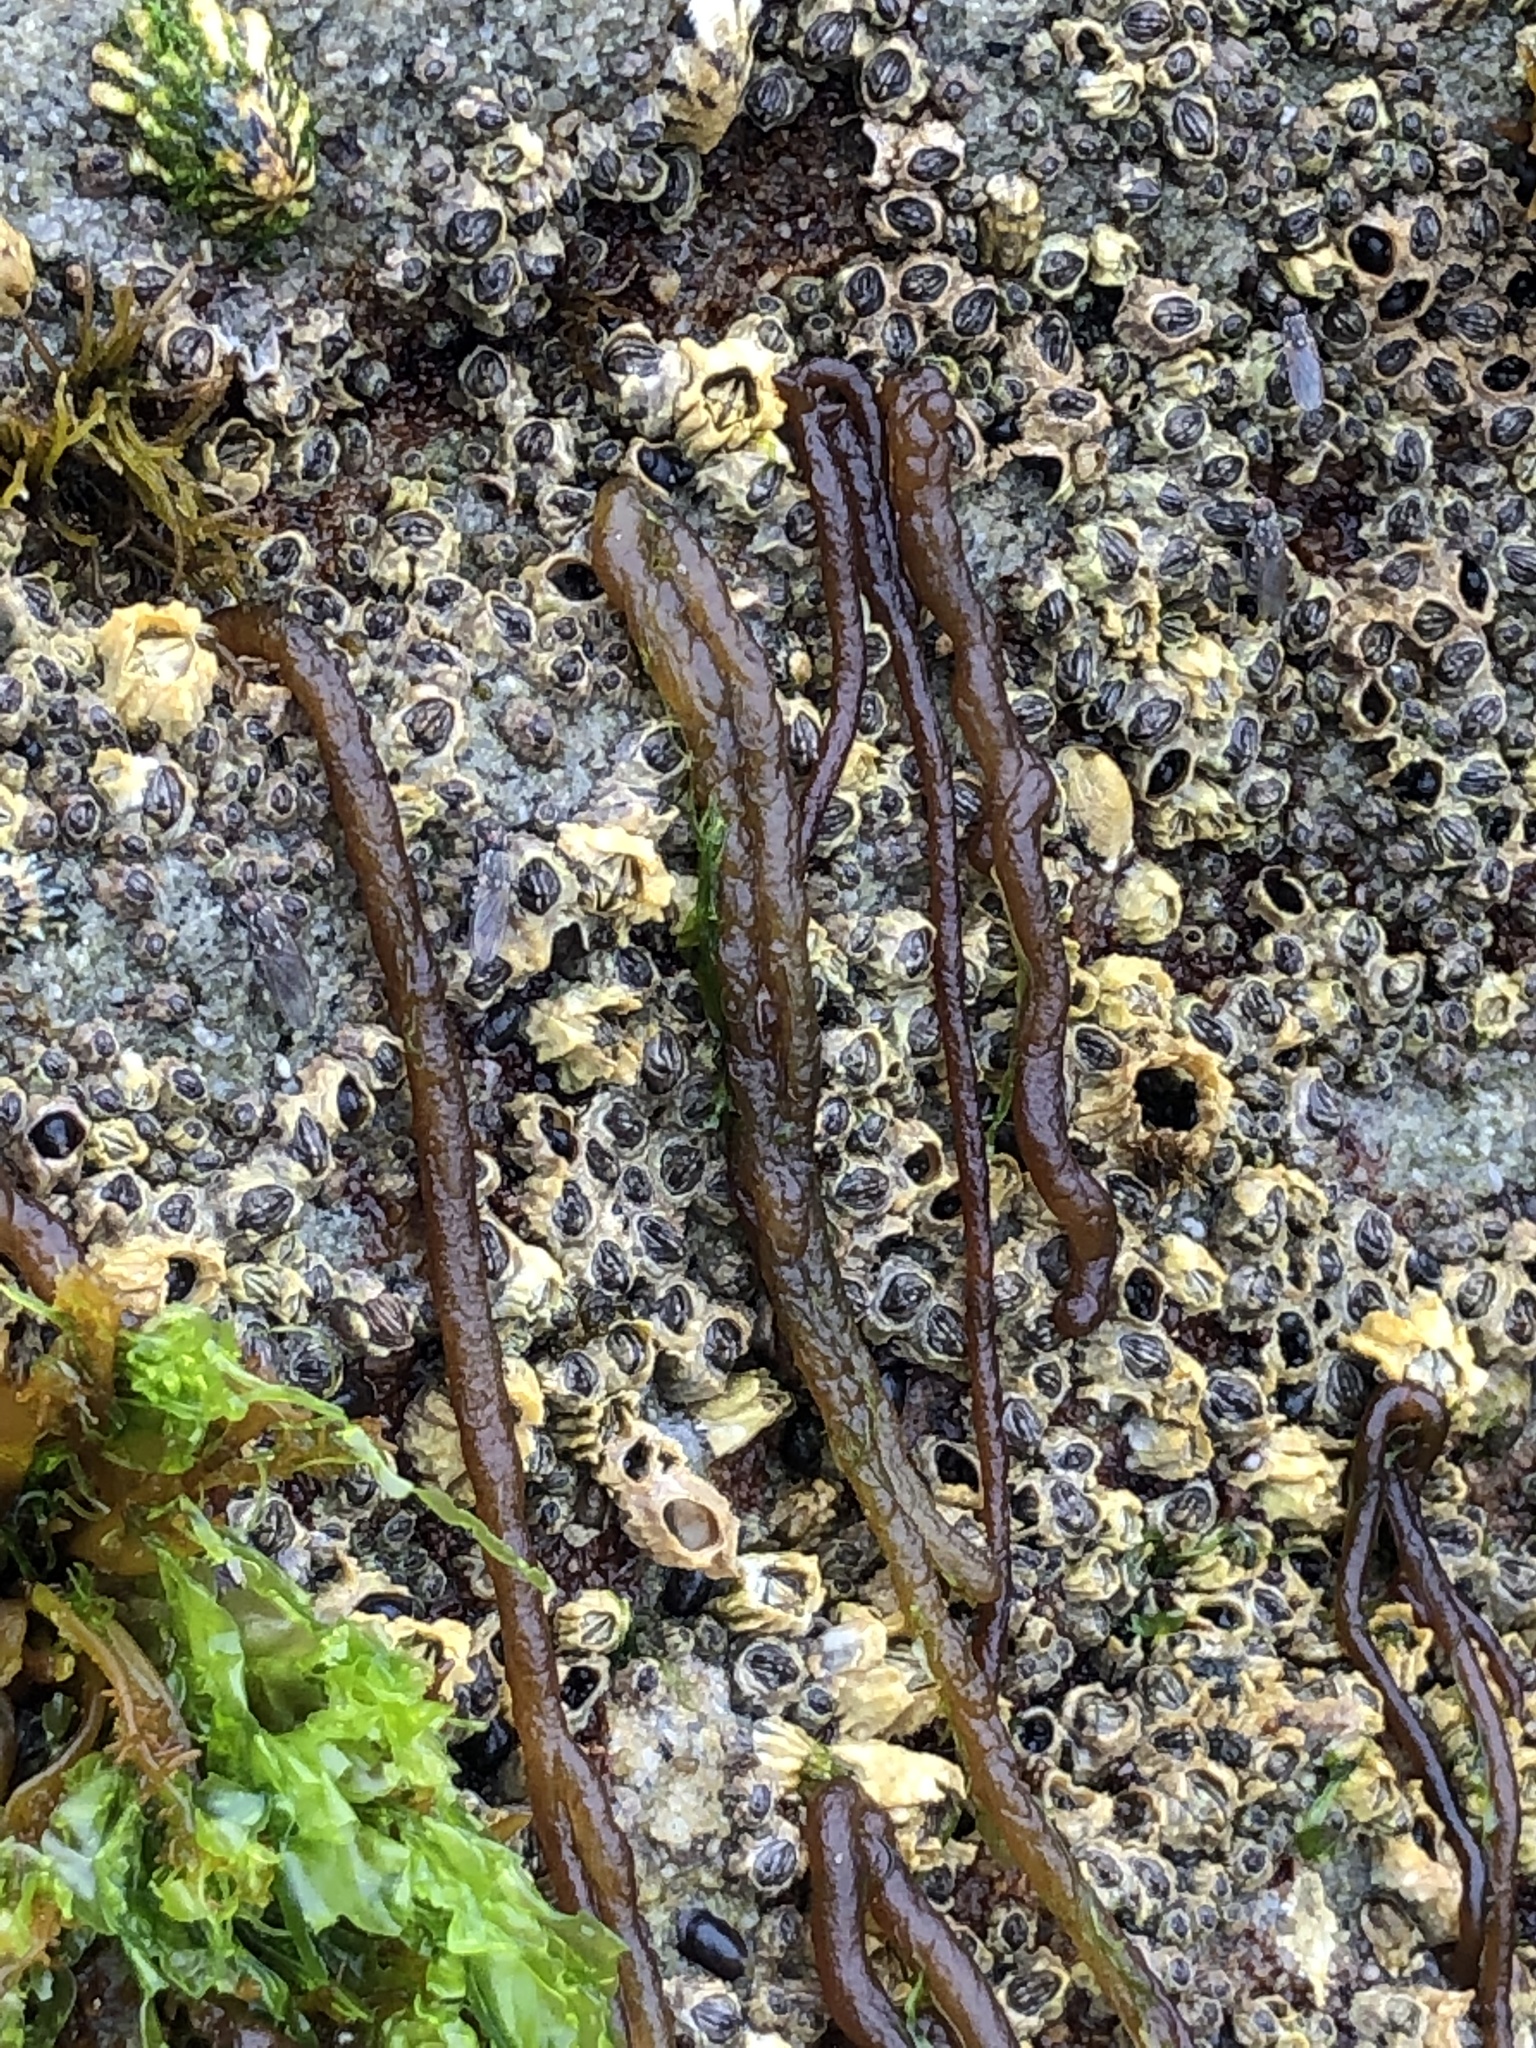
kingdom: Plantae
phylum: Rhodophyta
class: Florideophyceae
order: Nemaliales
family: Nemaliaceae
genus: Nemalion
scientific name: Nemalion elminthoides
